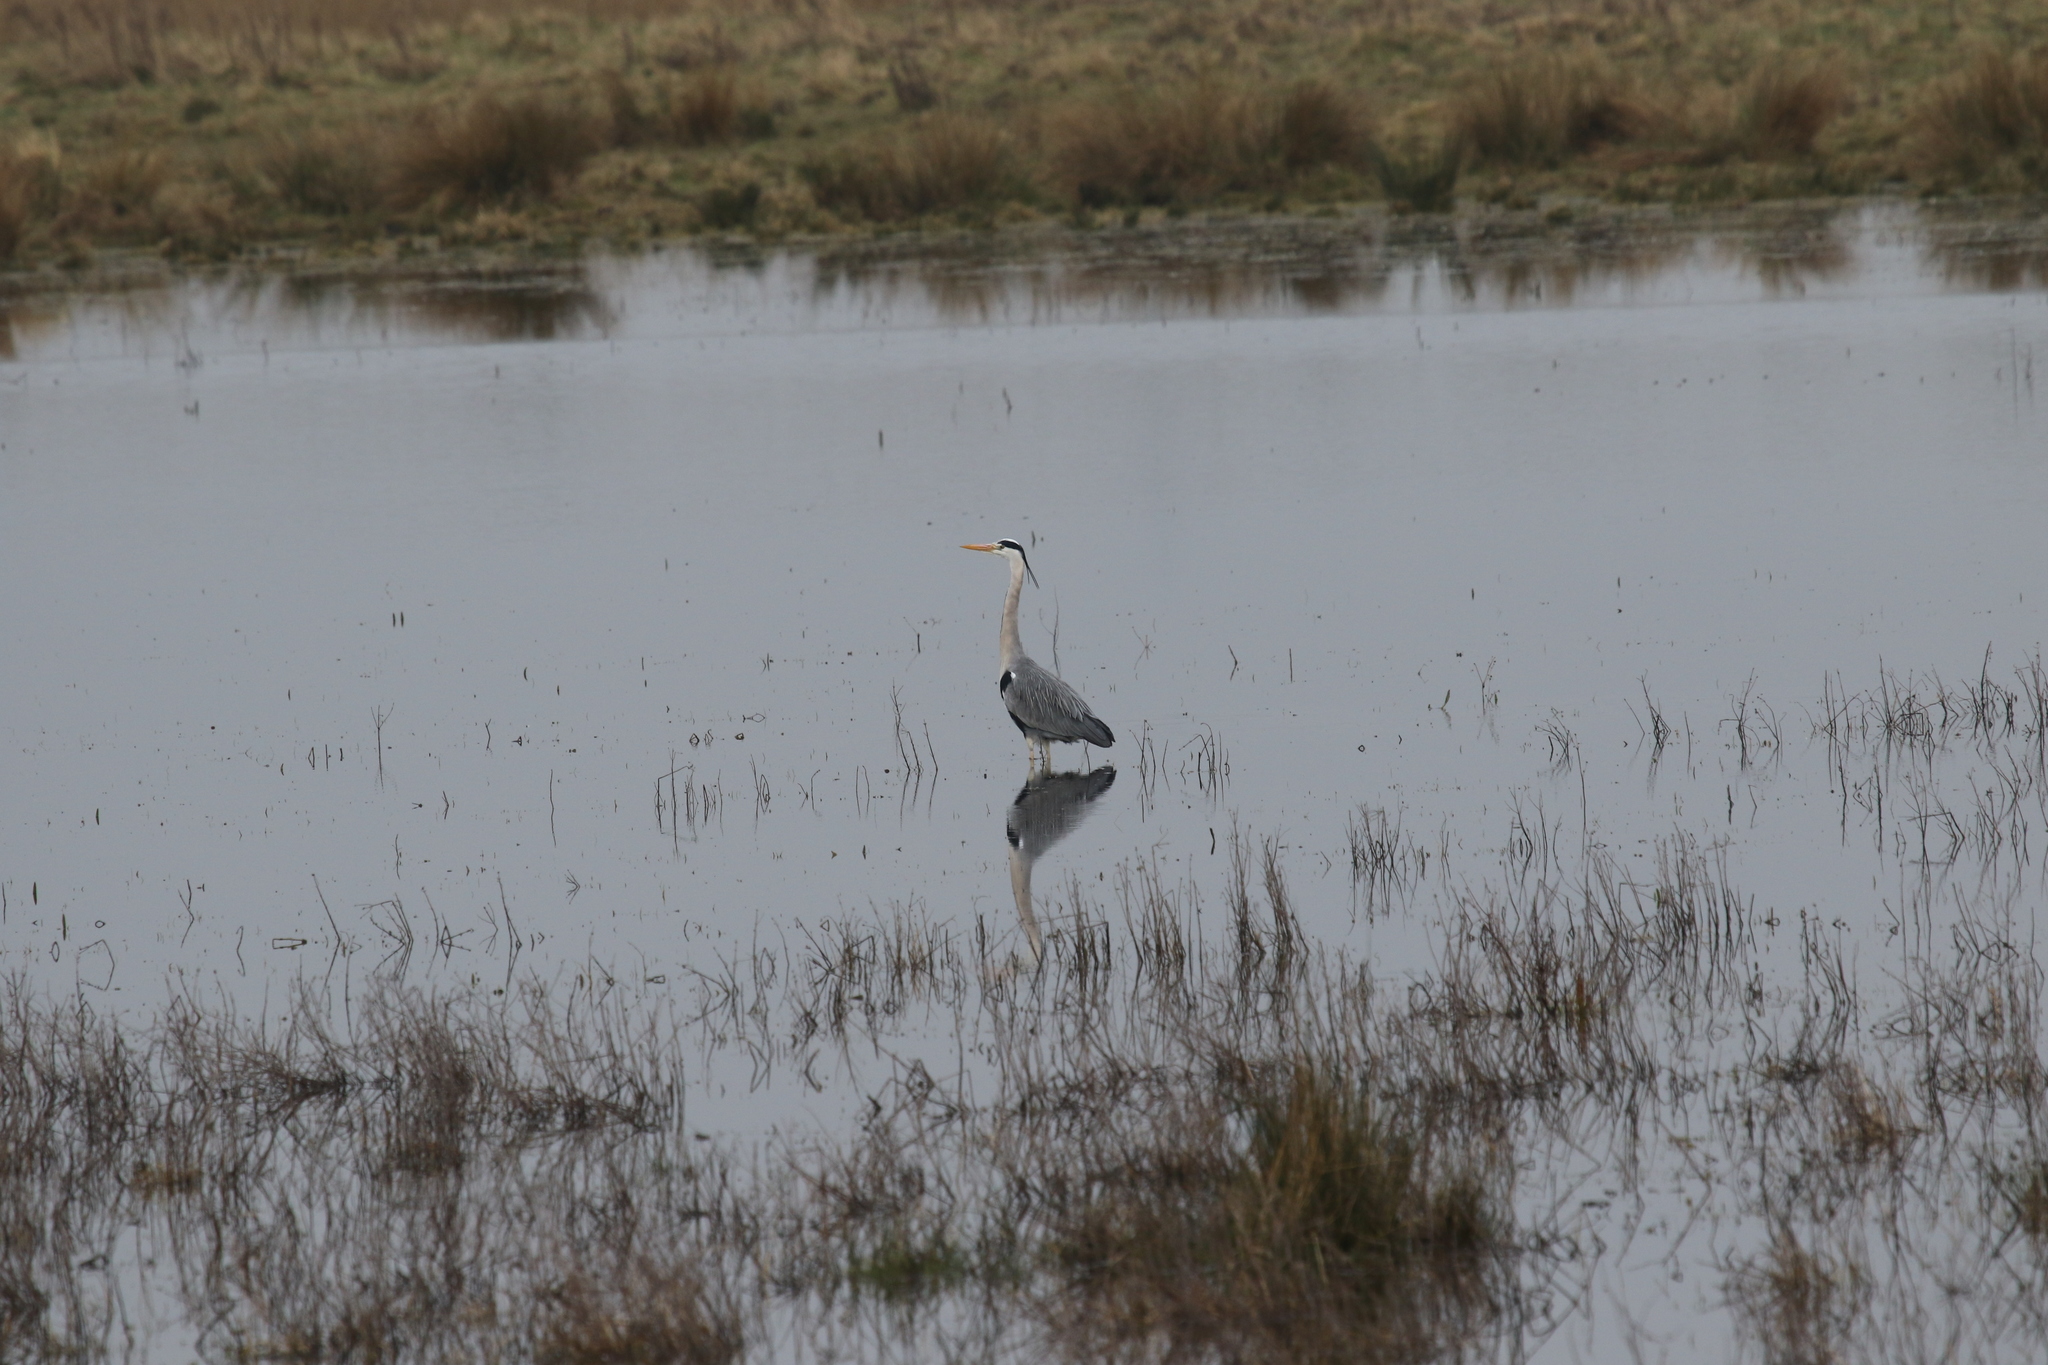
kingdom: Animalia
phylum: Chordata
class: Aves
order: Pelecaniformes
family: Ardeidae
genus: Ardea
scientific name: Ardea cinerea
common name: Grey heron
